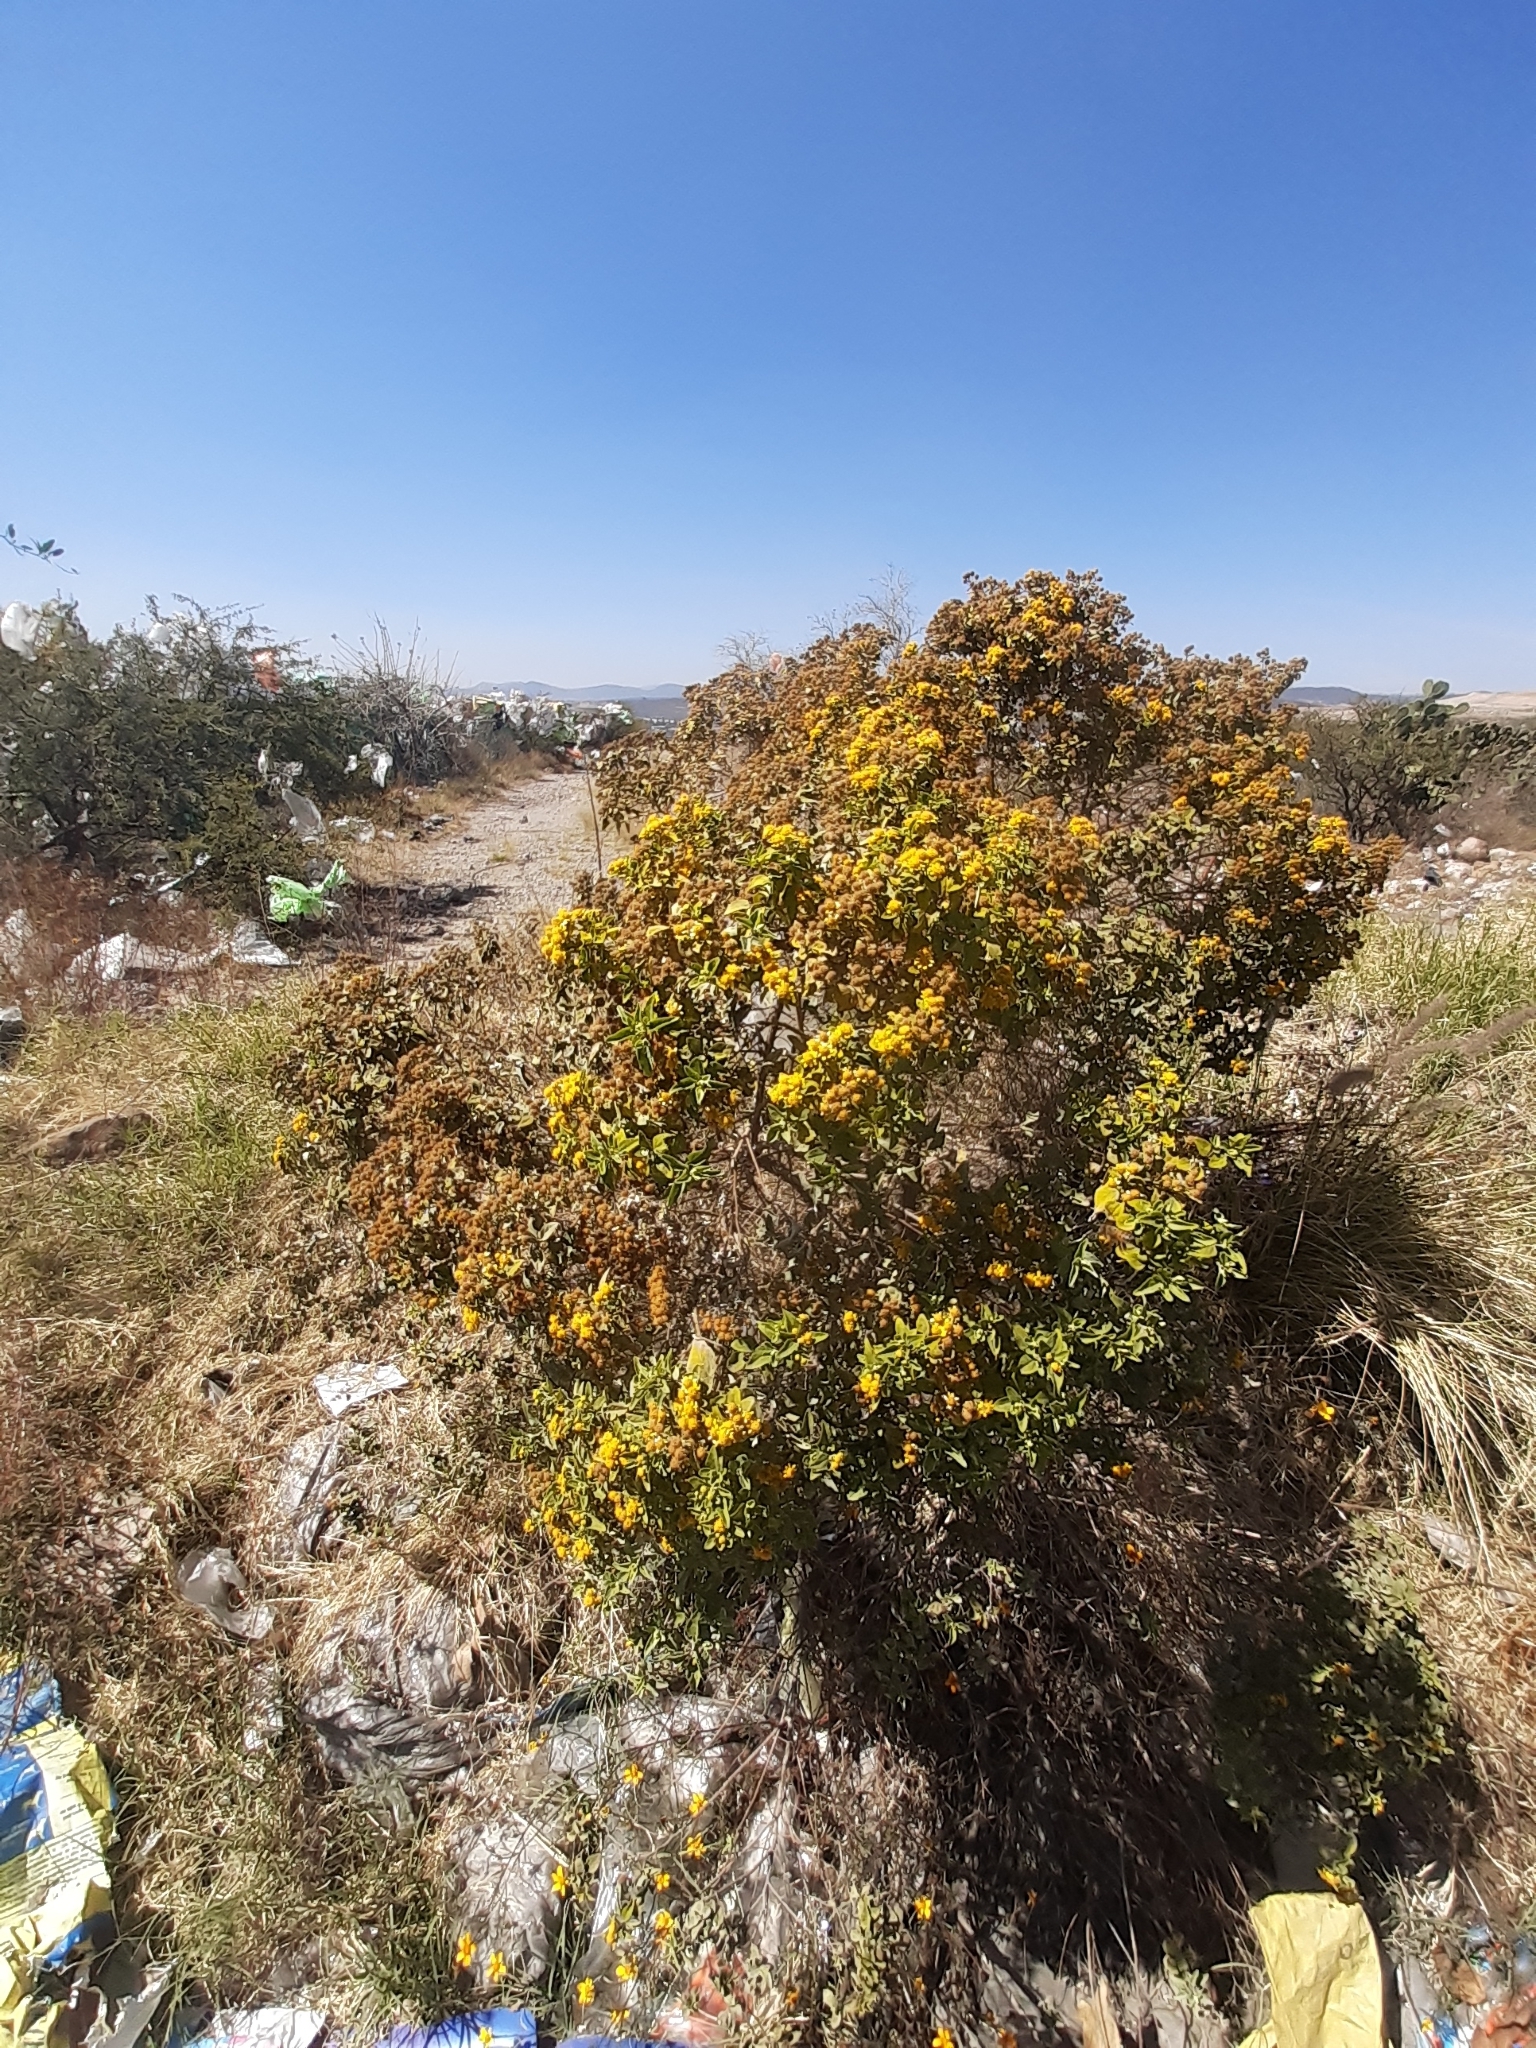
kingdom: Plantae
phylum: Tracheophyta
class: Magnoliopsida
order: Asterales
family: Asteraceae
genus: Zaluzania
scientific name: Zaluzania augusta
